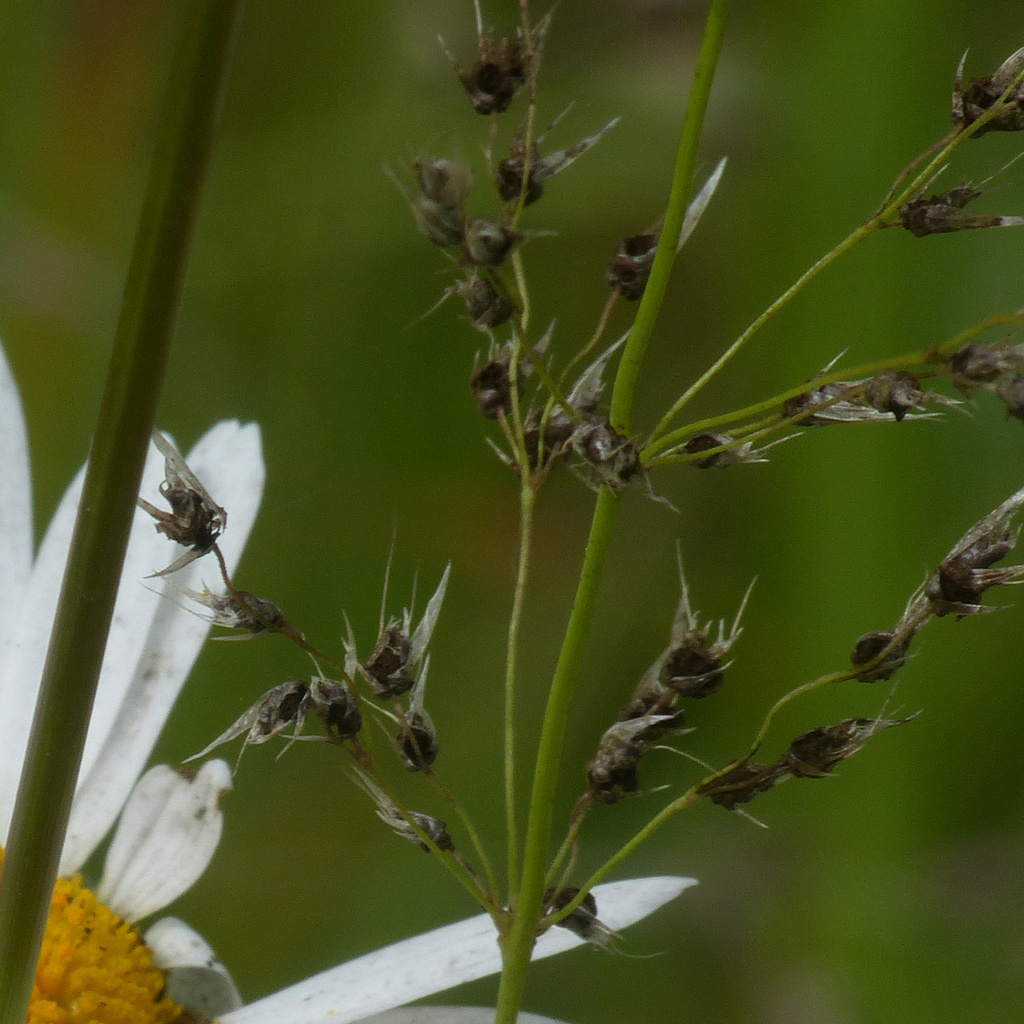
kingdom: Fungi
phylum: Basidiomycota
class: Ustilaginomycetes
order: Ustilaginales
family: Ustilaginaceae
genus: Ustilago
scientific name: Ustilago avenae
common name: Loose smut of oats & oat grass
